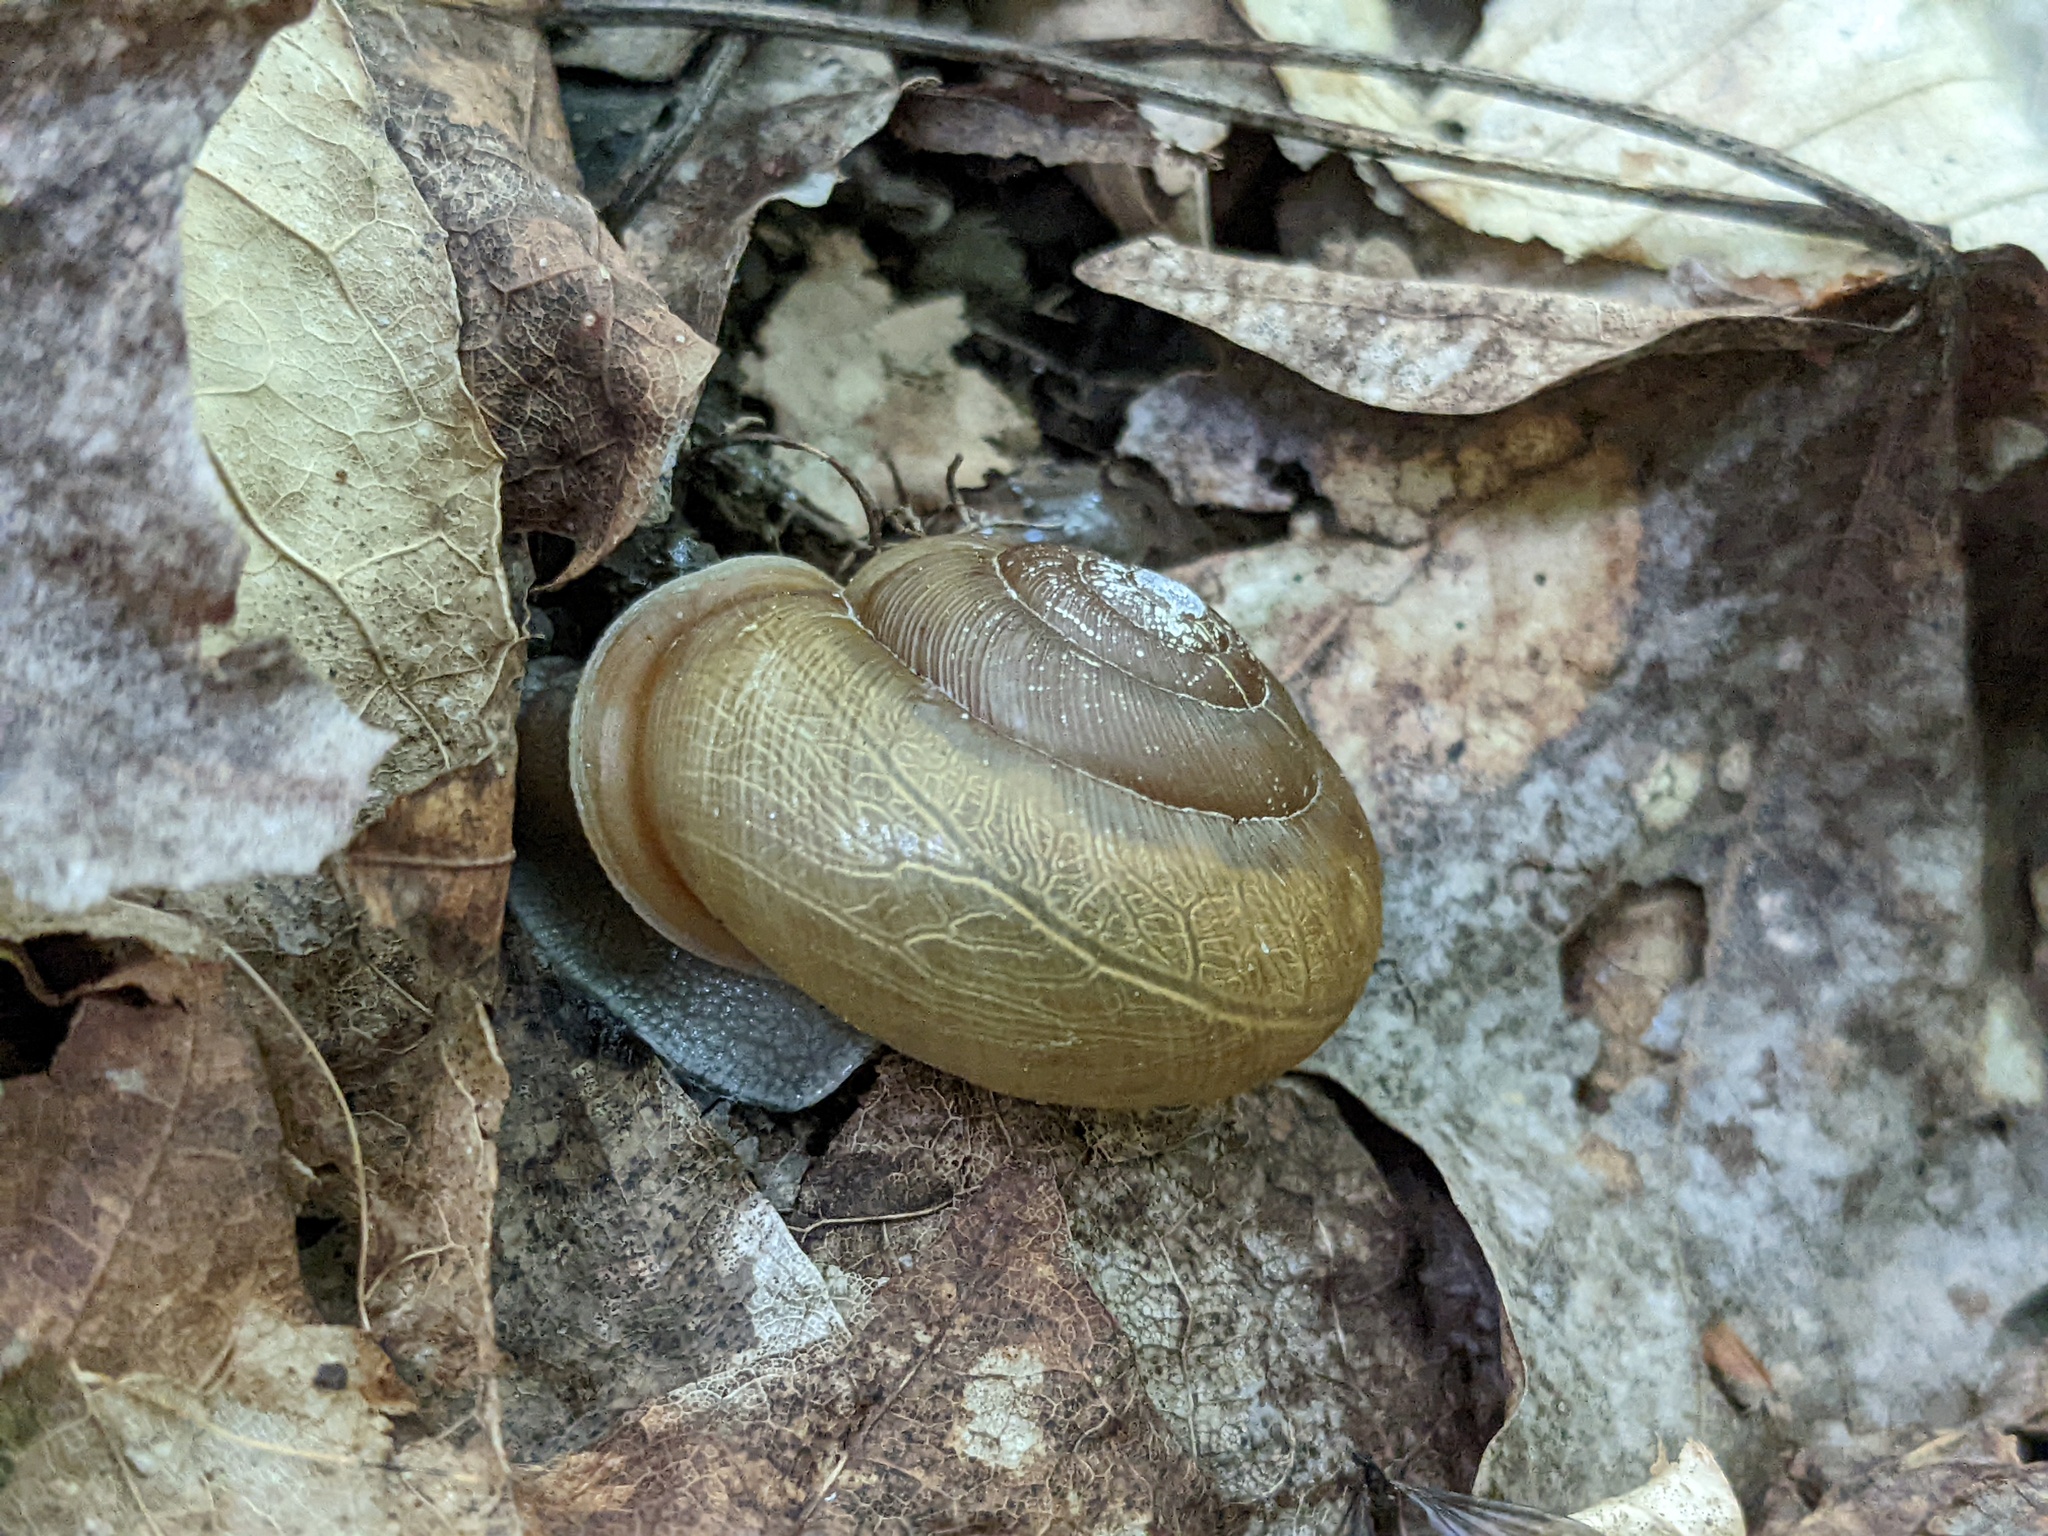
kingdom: Animalia
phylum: Mollusca
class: Gastropoda
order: Stylommatophora
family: Polygyridae
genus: Neohelix
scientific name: Neohelix albolabris
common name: Eastern whitelip
